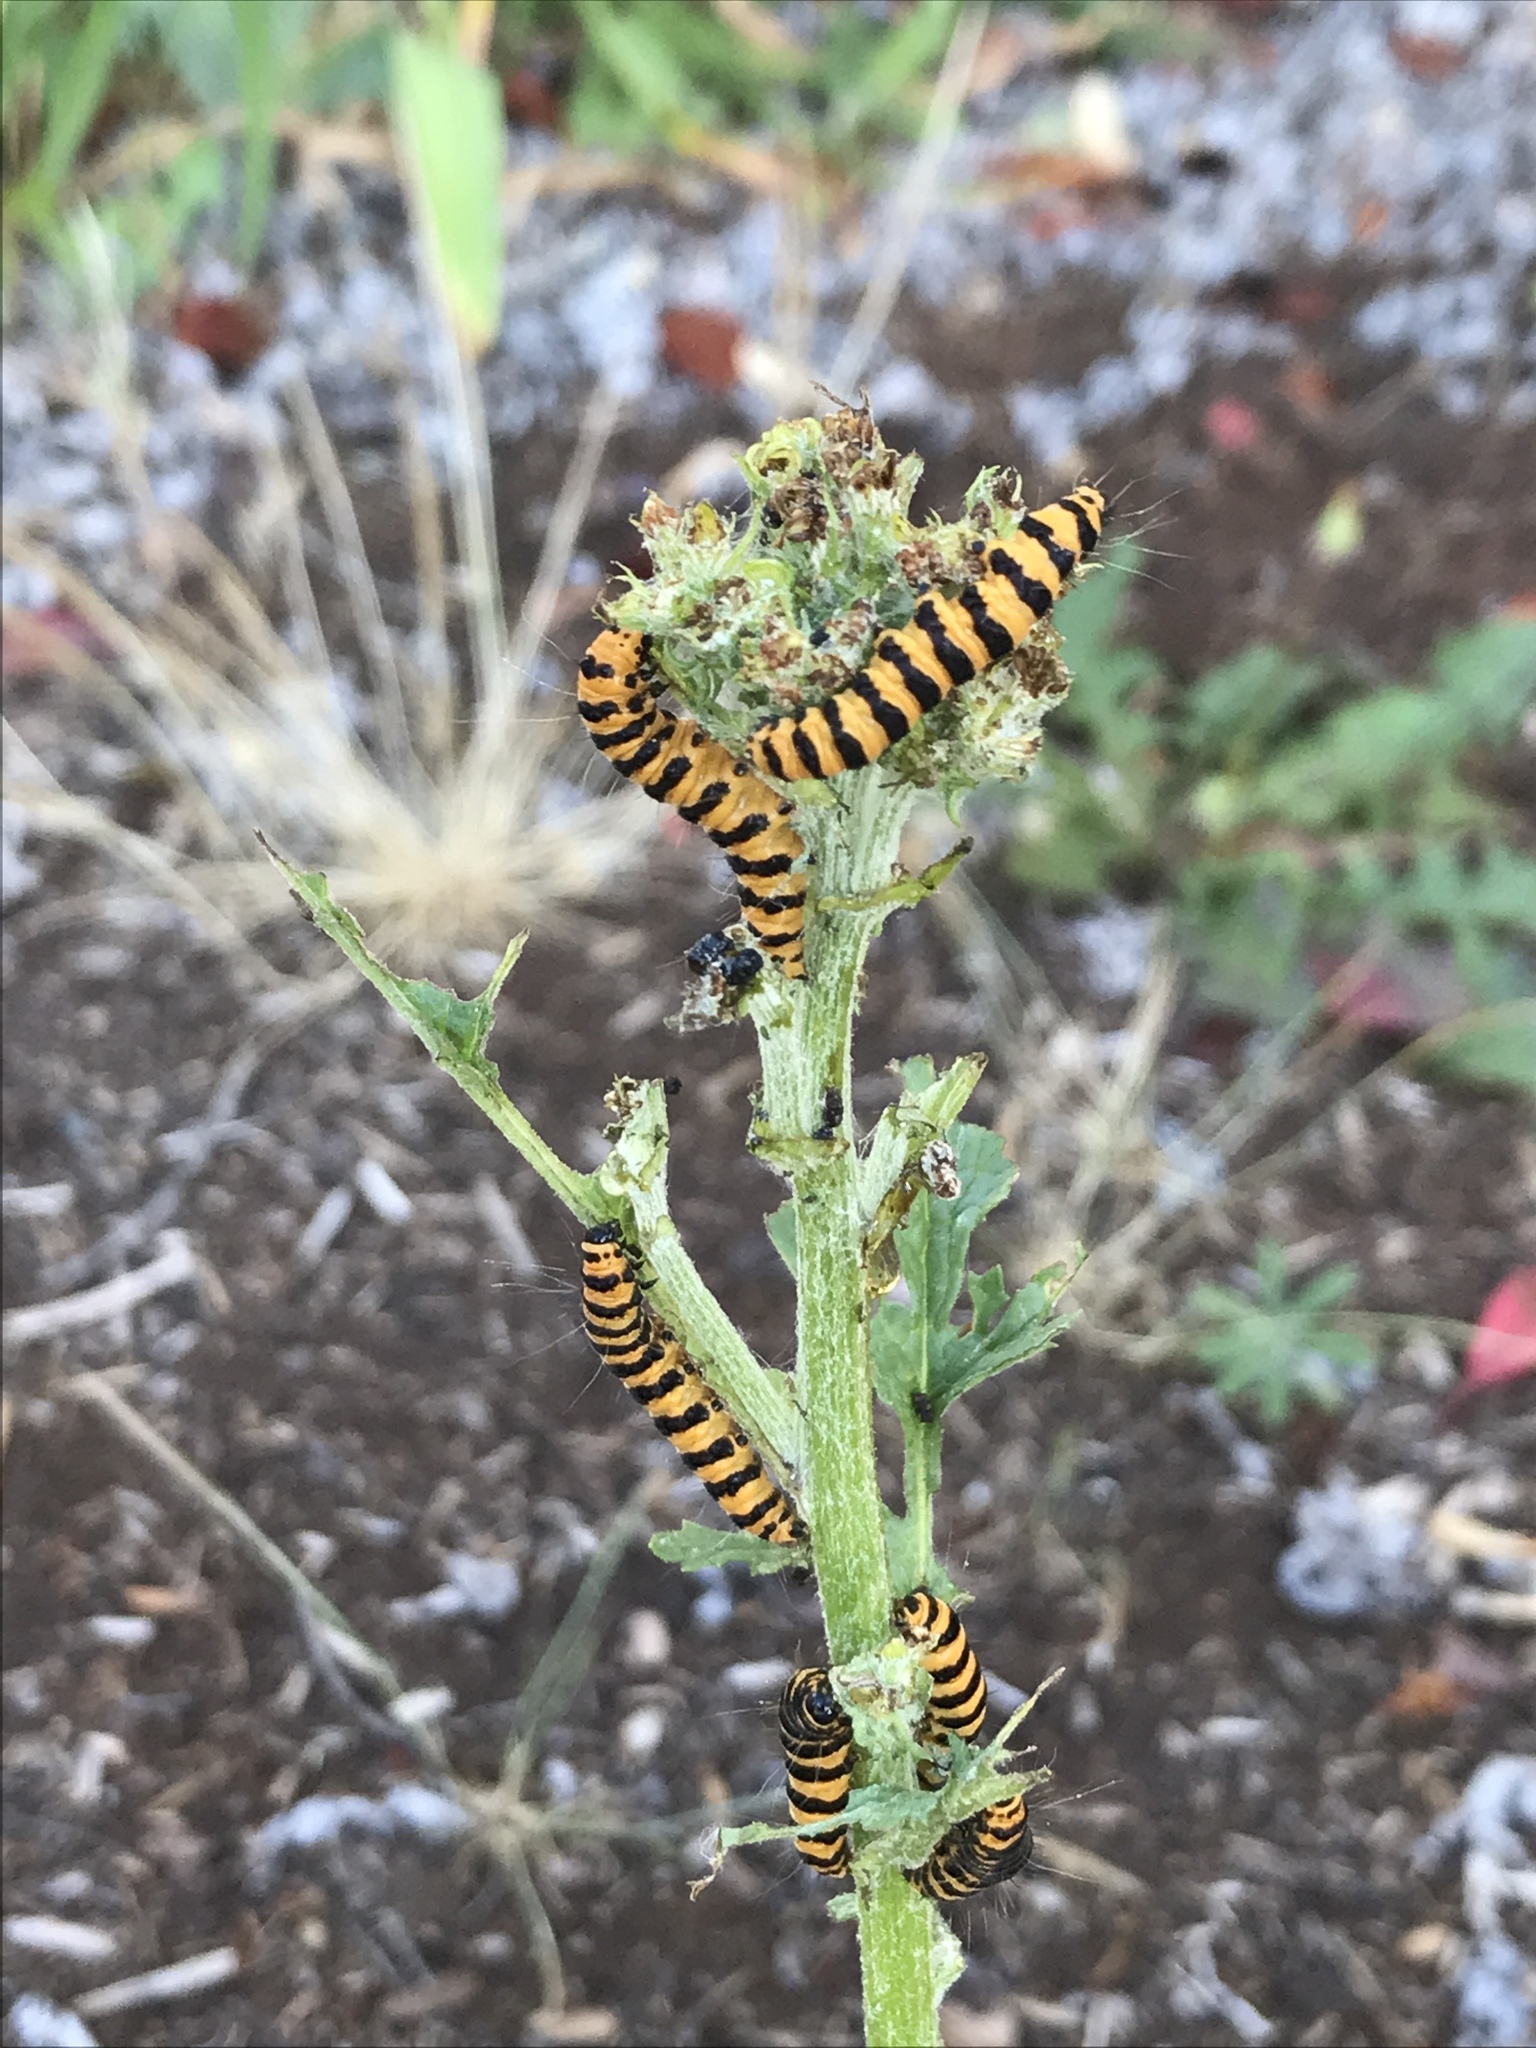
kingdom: Animalia
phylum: Arthropoda
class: Insecta
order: Lepidoptera
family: Erebidae
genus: Tyria
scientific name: Tyria jacobaeae
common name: Cinnabar
